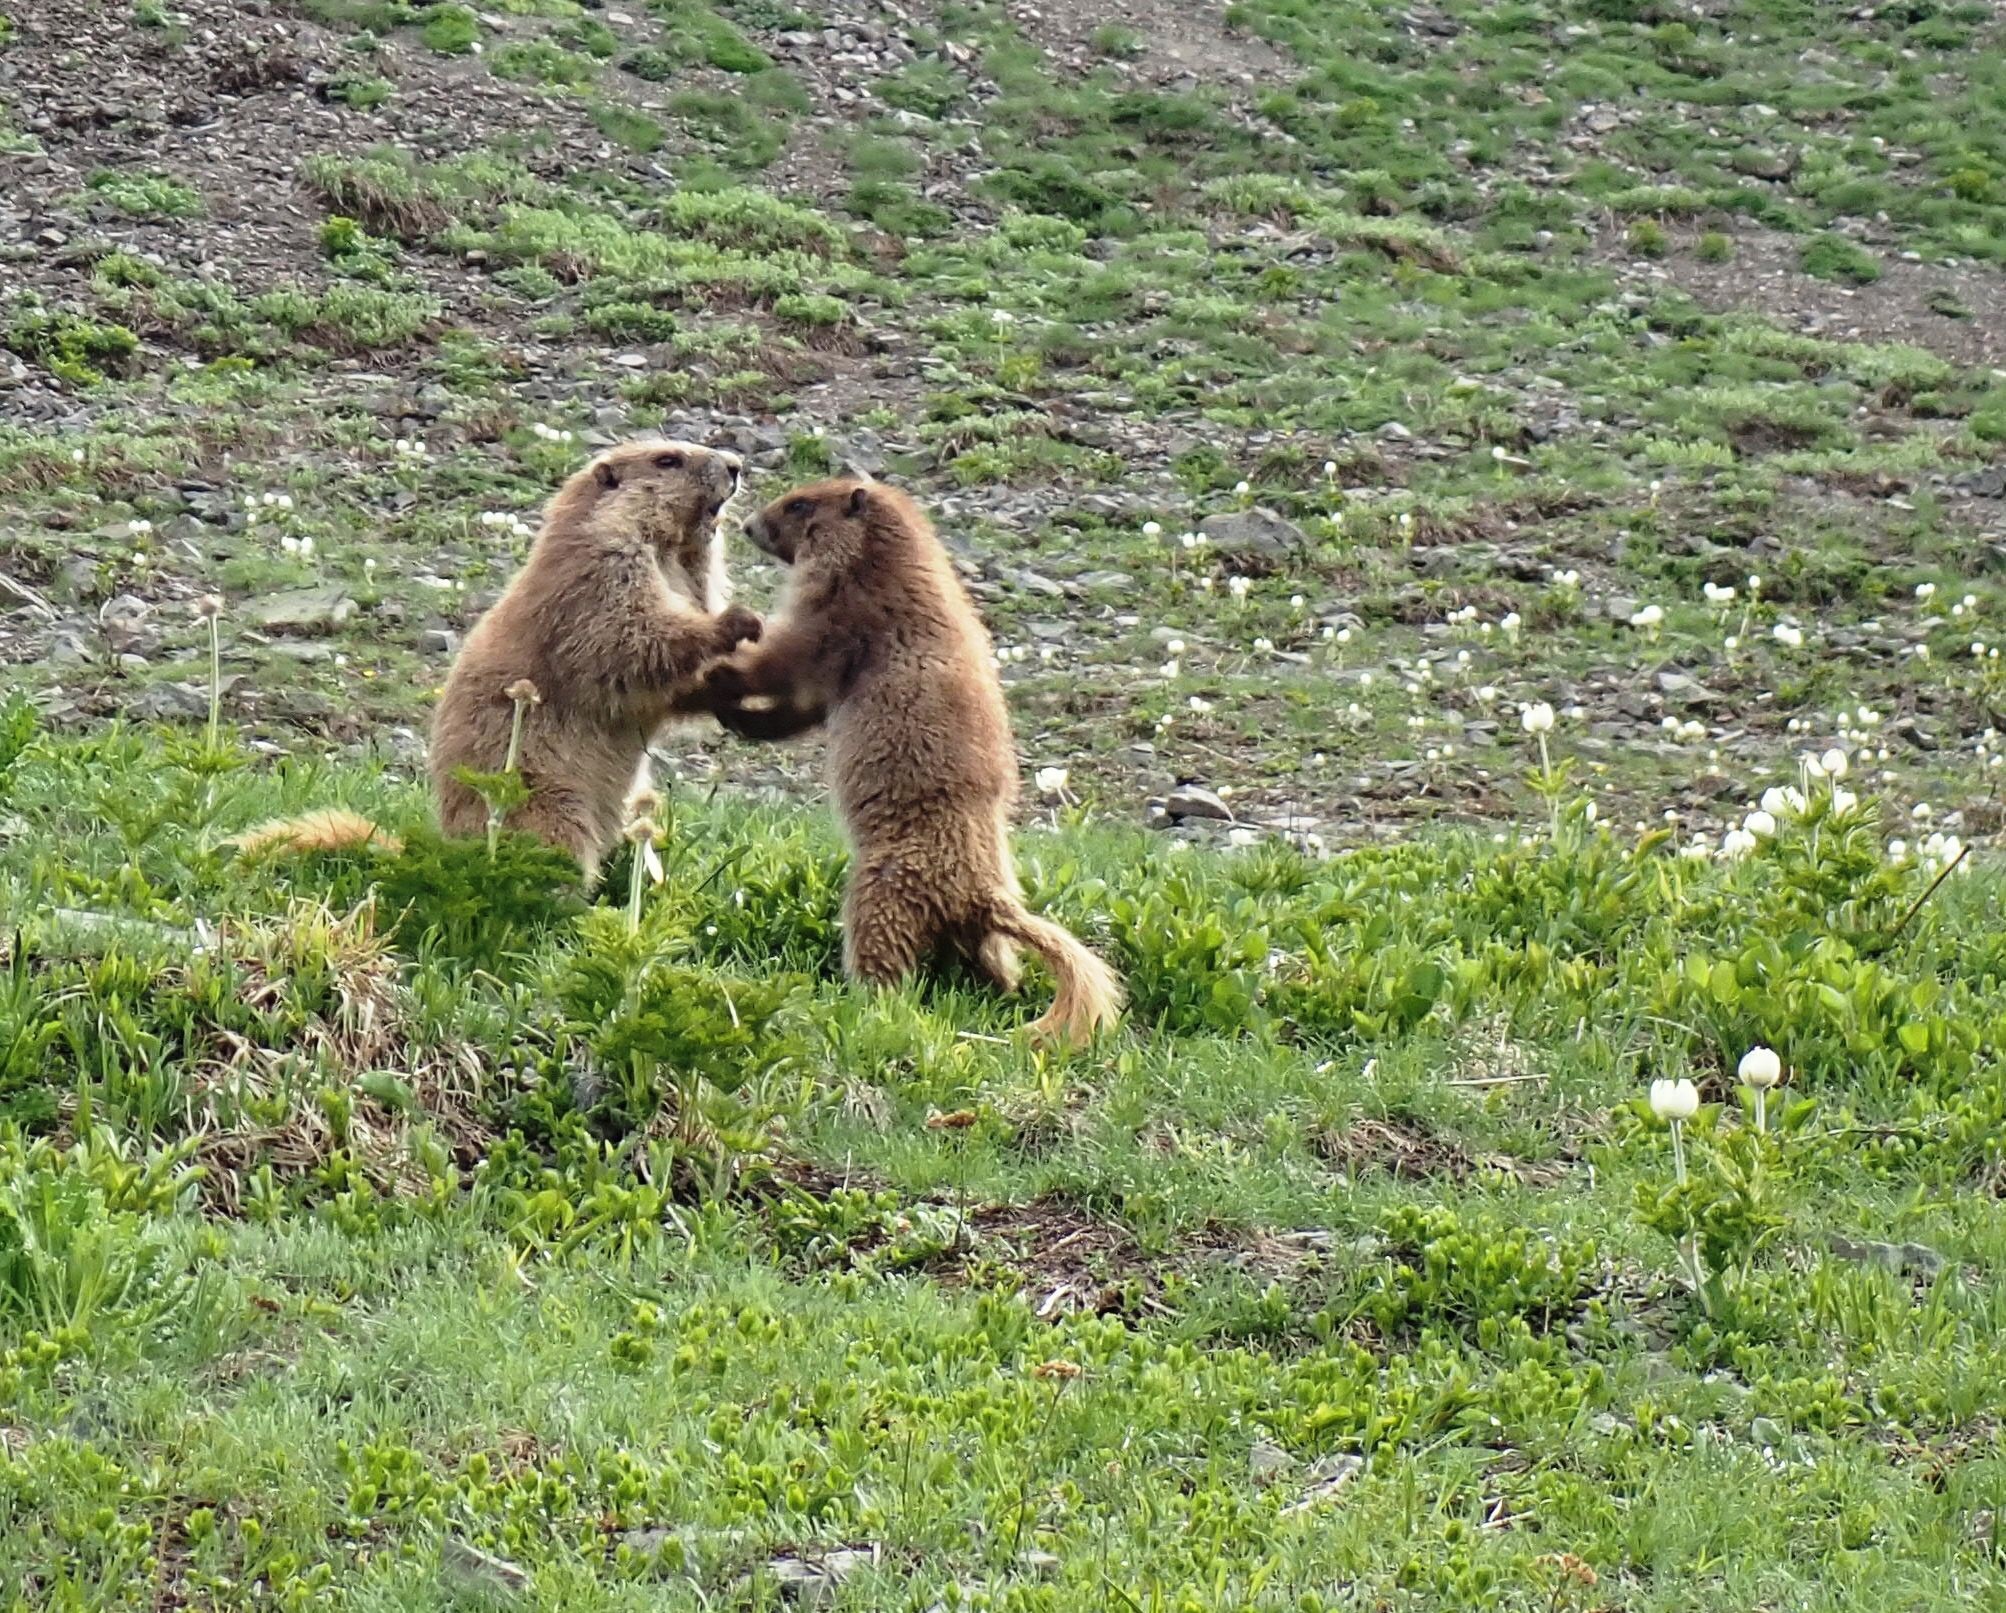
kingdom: Animalia
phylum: Chordata
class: Mammalia
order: Rodentia
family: Sciuridae
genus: Marmota
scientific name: Marmota olympus
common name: Olympic marmot
